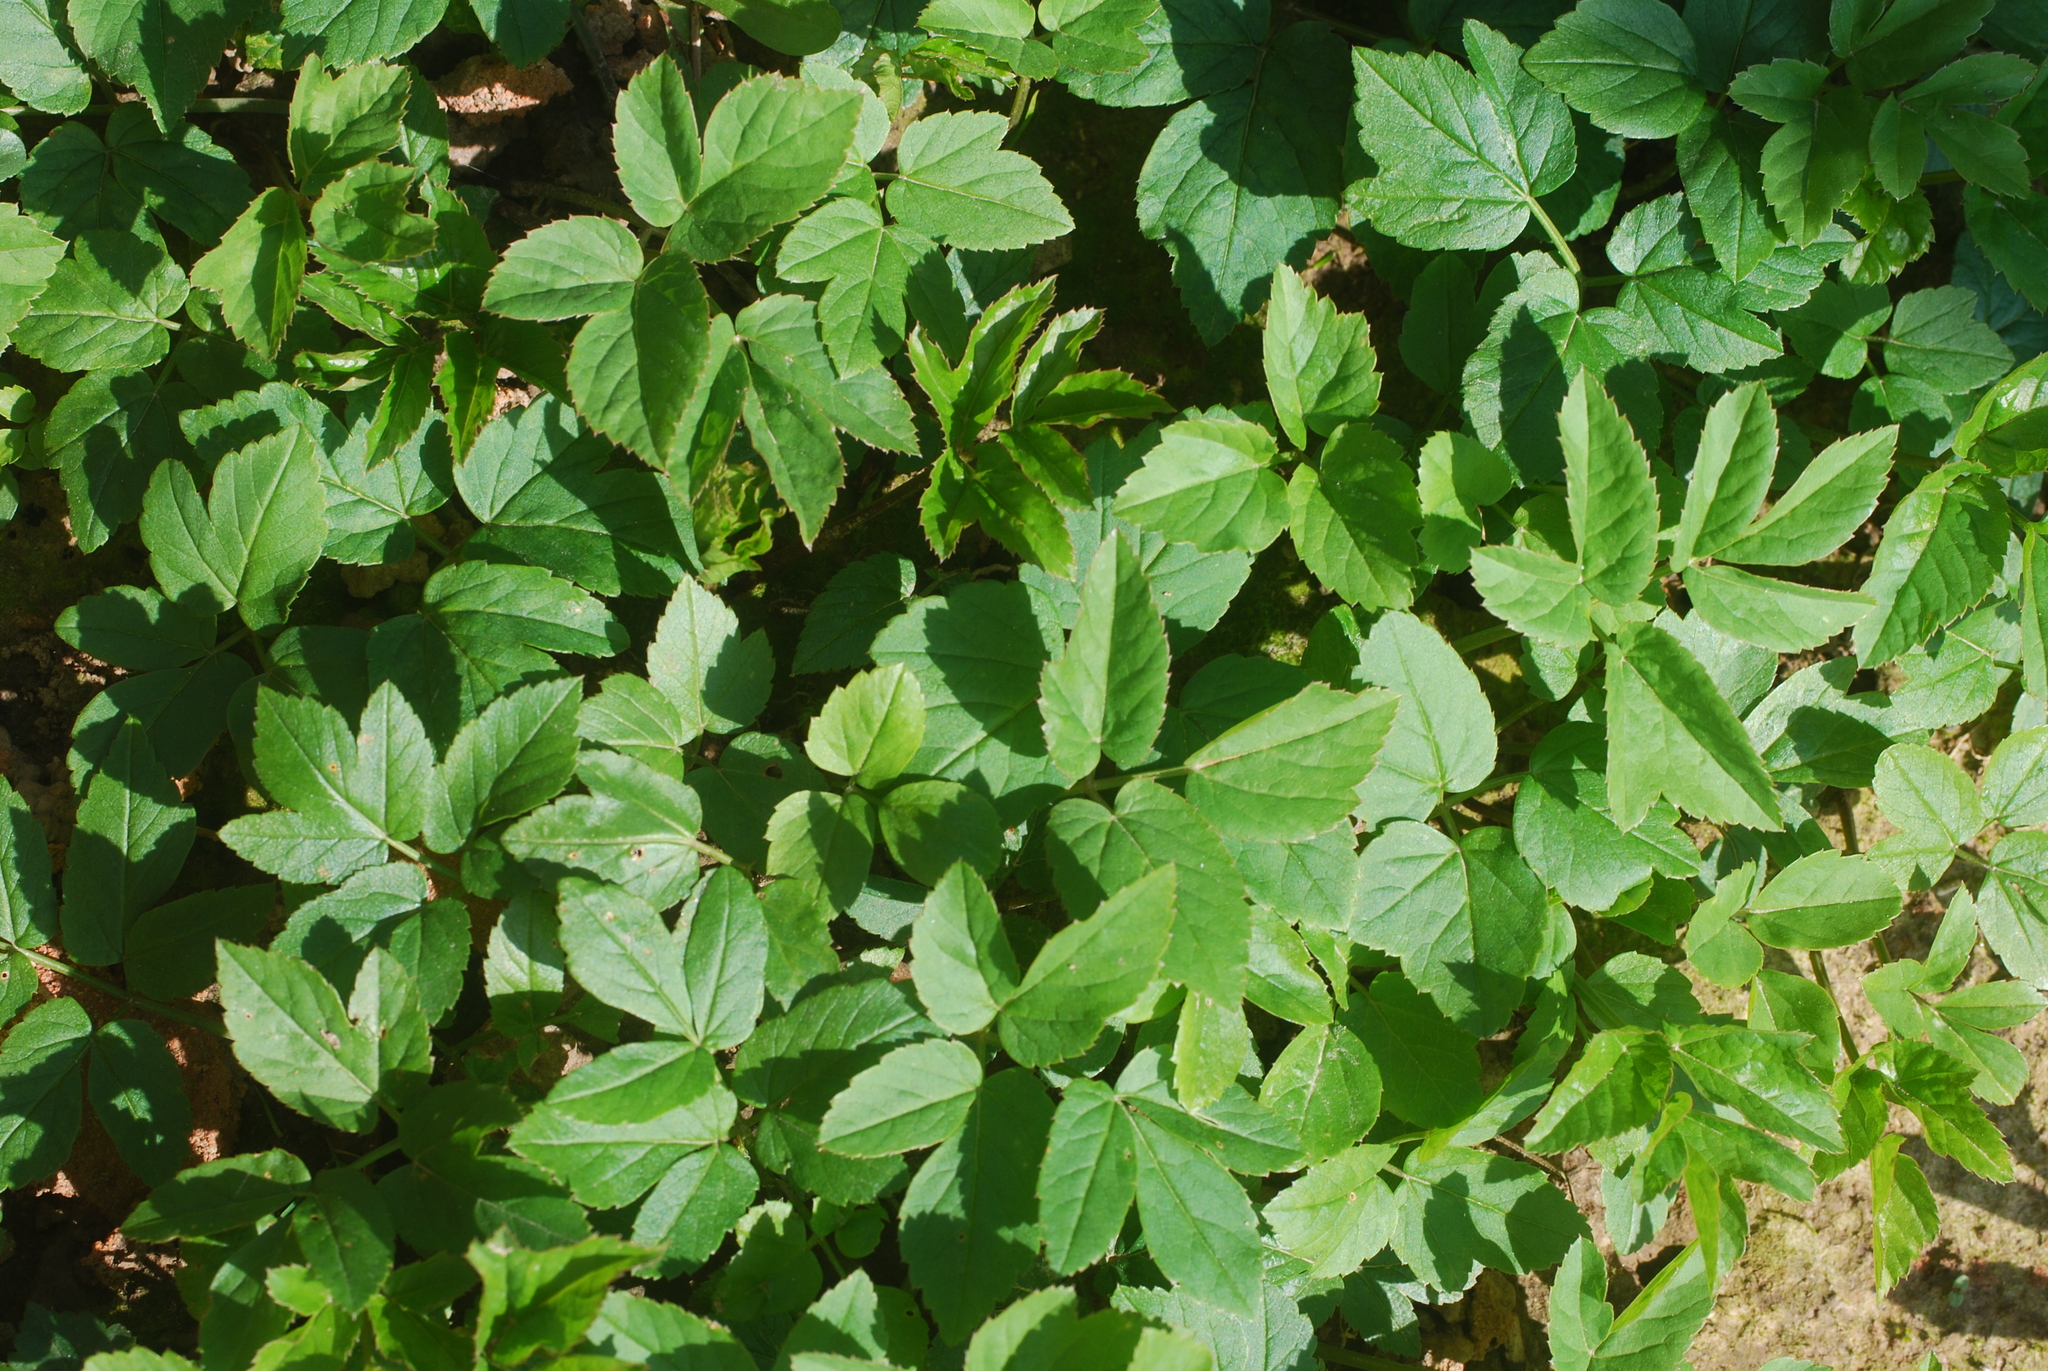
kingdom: Plantae
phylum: Tracheophyta
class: Magnoliopsida
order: Apiales
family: Apiaceae
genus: Aegopodium
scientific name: Aegopodium podagraria
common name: Ground-elder
